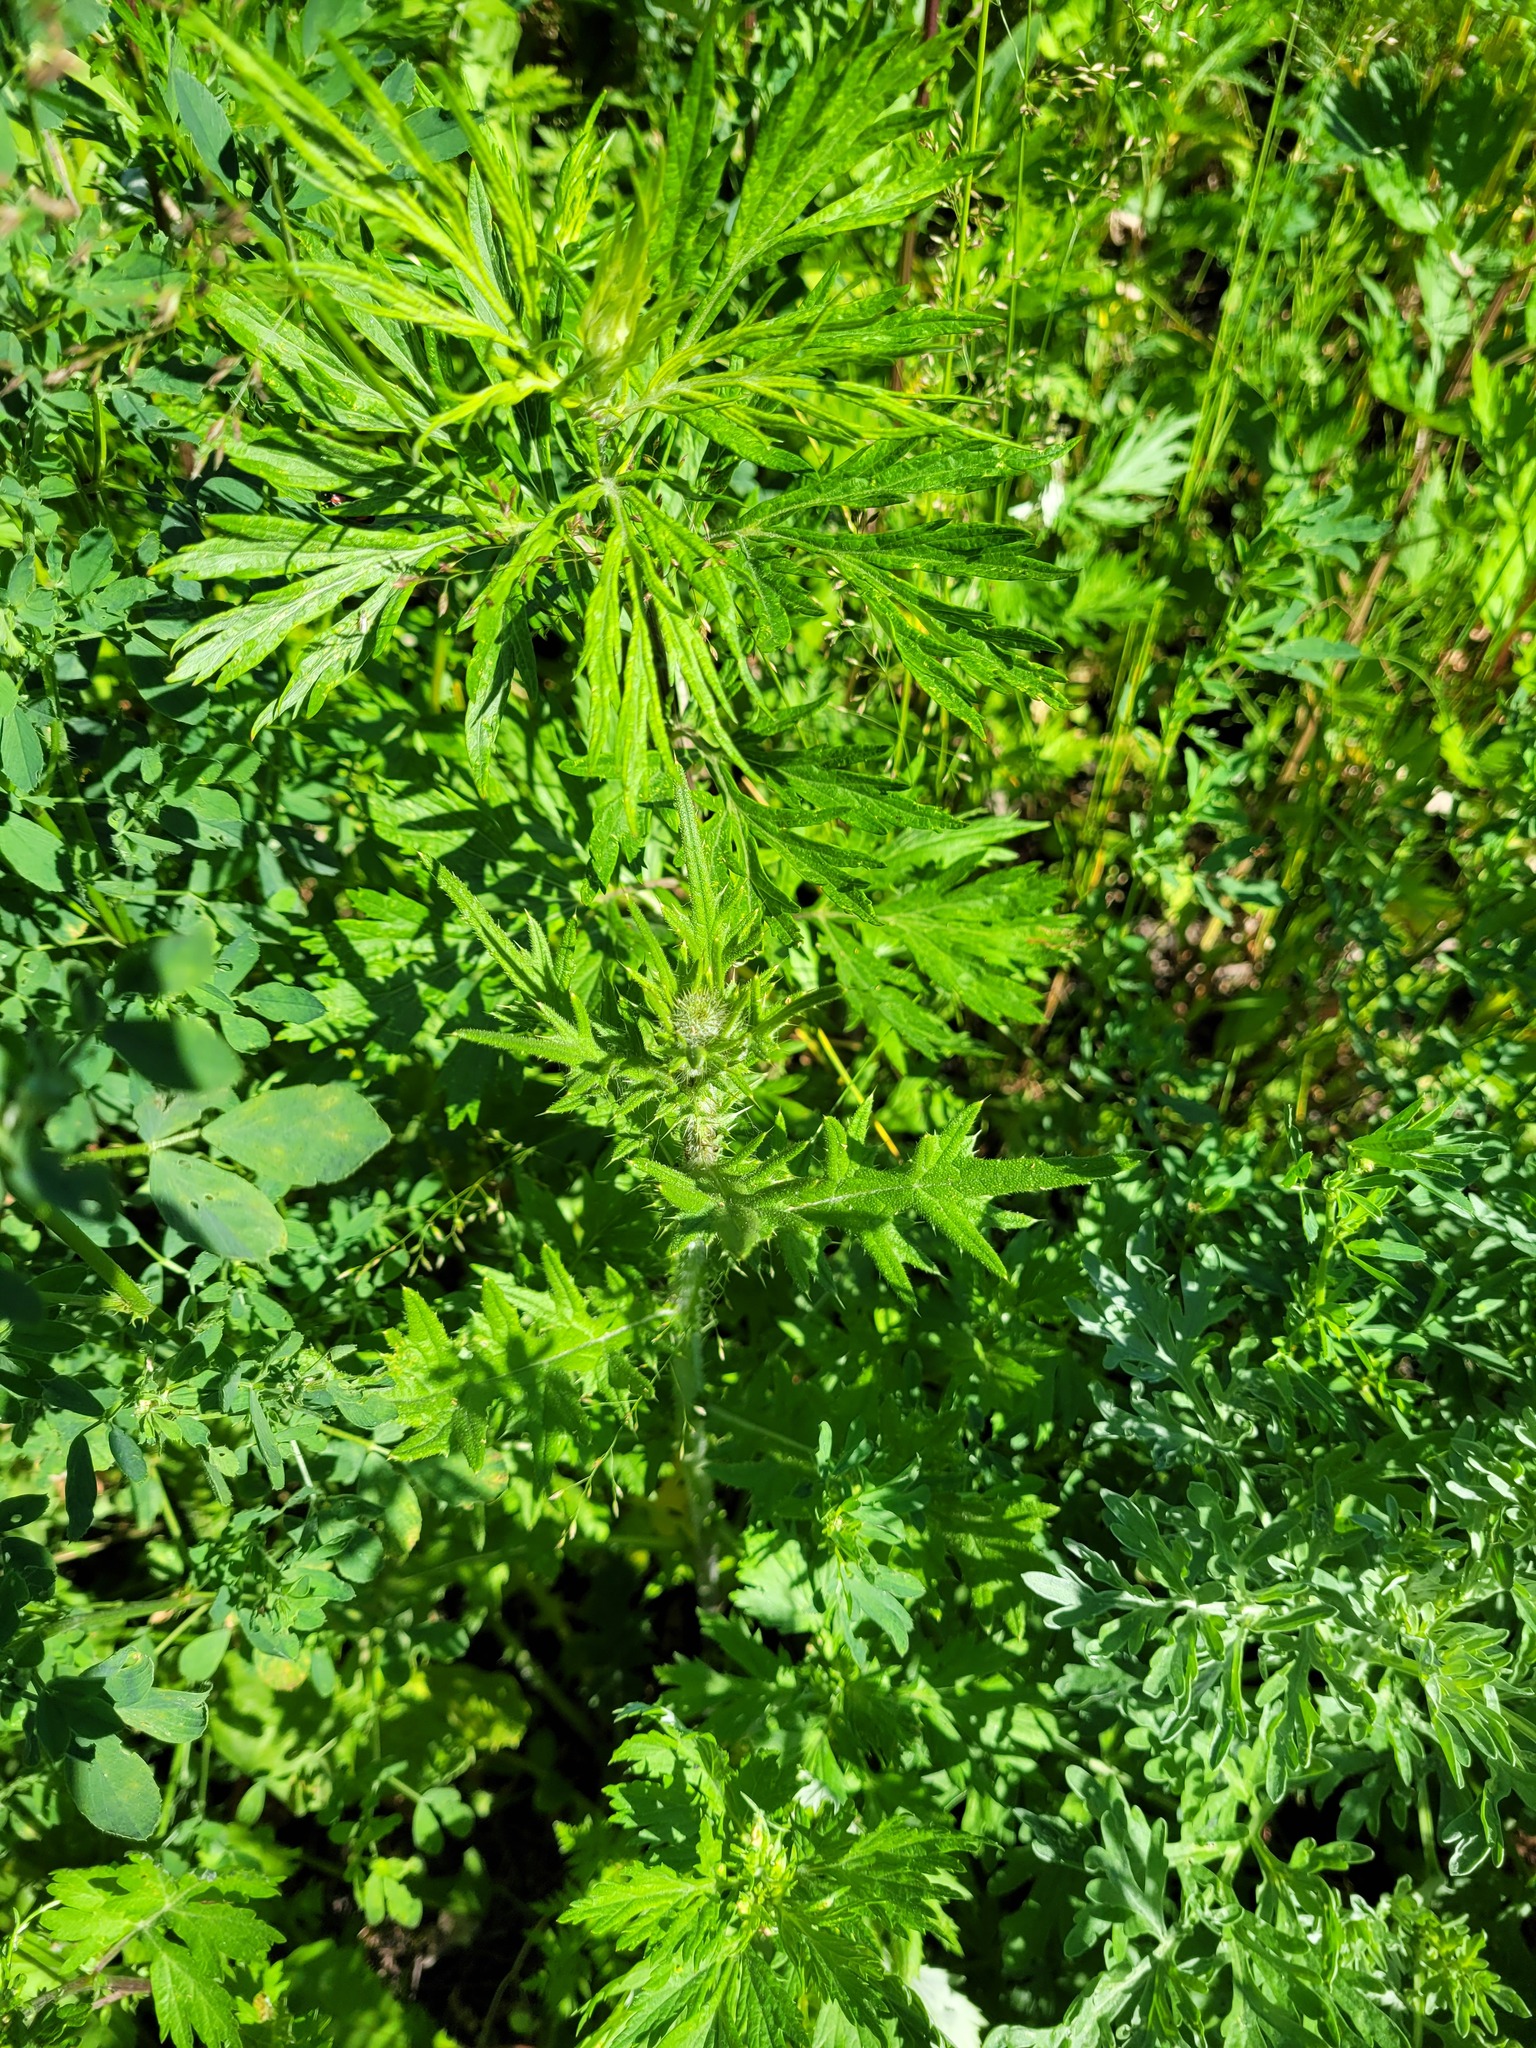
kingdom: Plantae
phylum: Tracheophyta
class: Magnoliopsida
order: Asterales
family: Asteraceae
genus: Cirsium
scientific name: Cirsium vulgare
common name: Bull thistle
